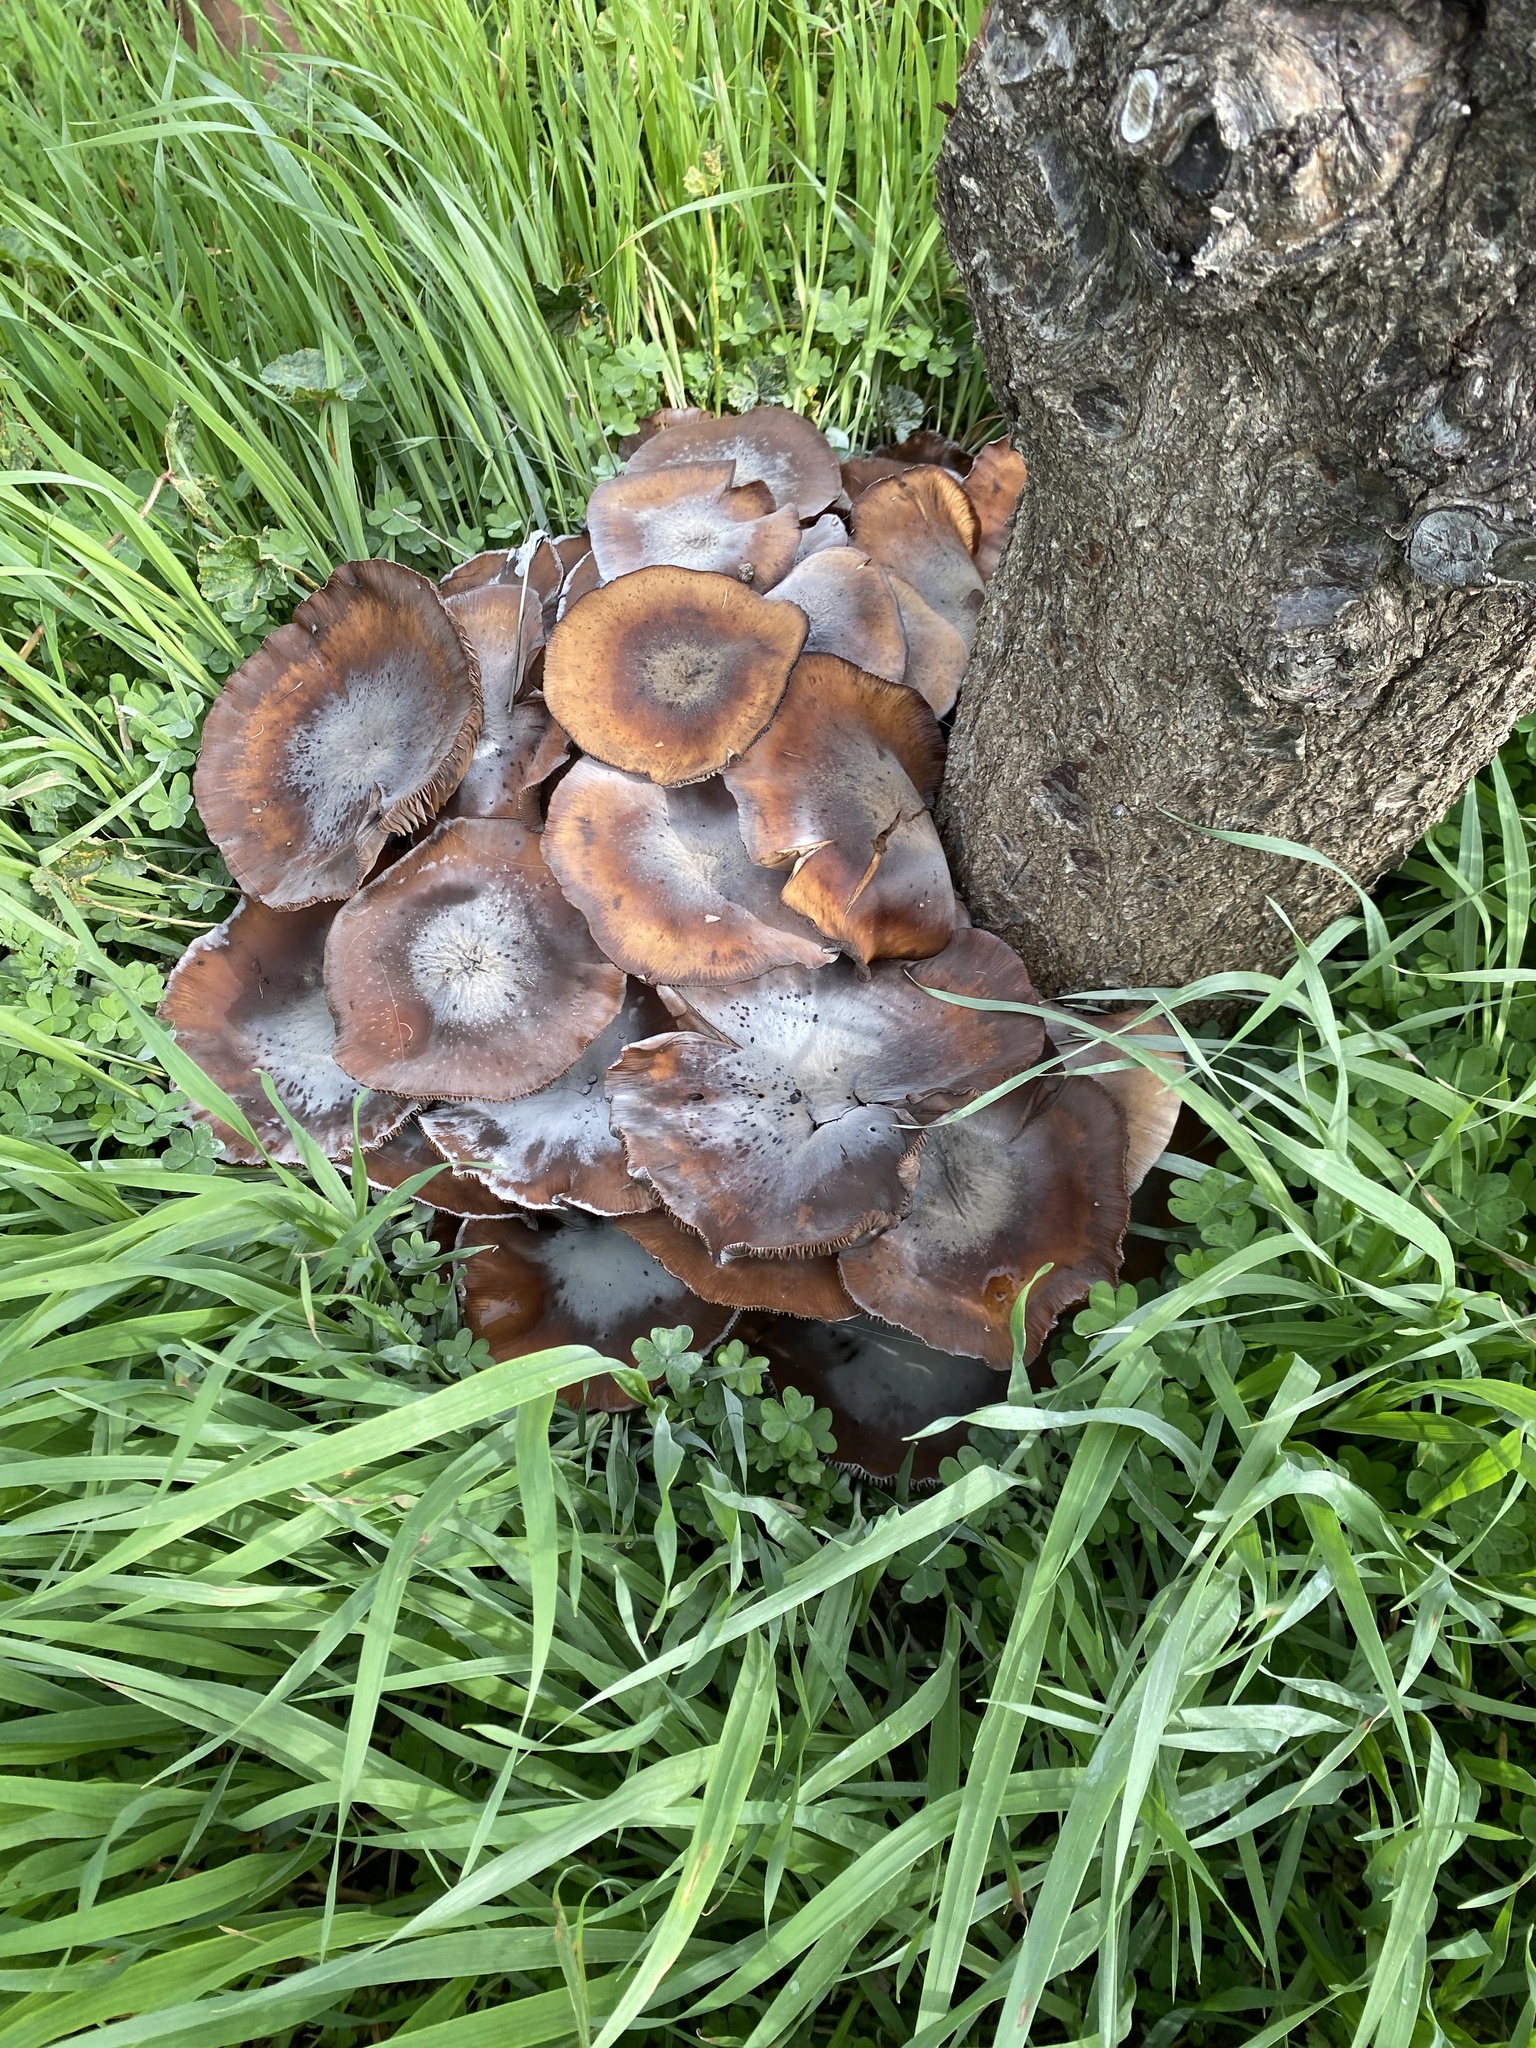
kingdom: Fungi
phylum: Basidiomycota
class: Agaricomycetes
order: Agaricales
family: Physalacriaceae
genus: Armillaria
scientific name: Armillaria mellea
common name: Honey fungus
